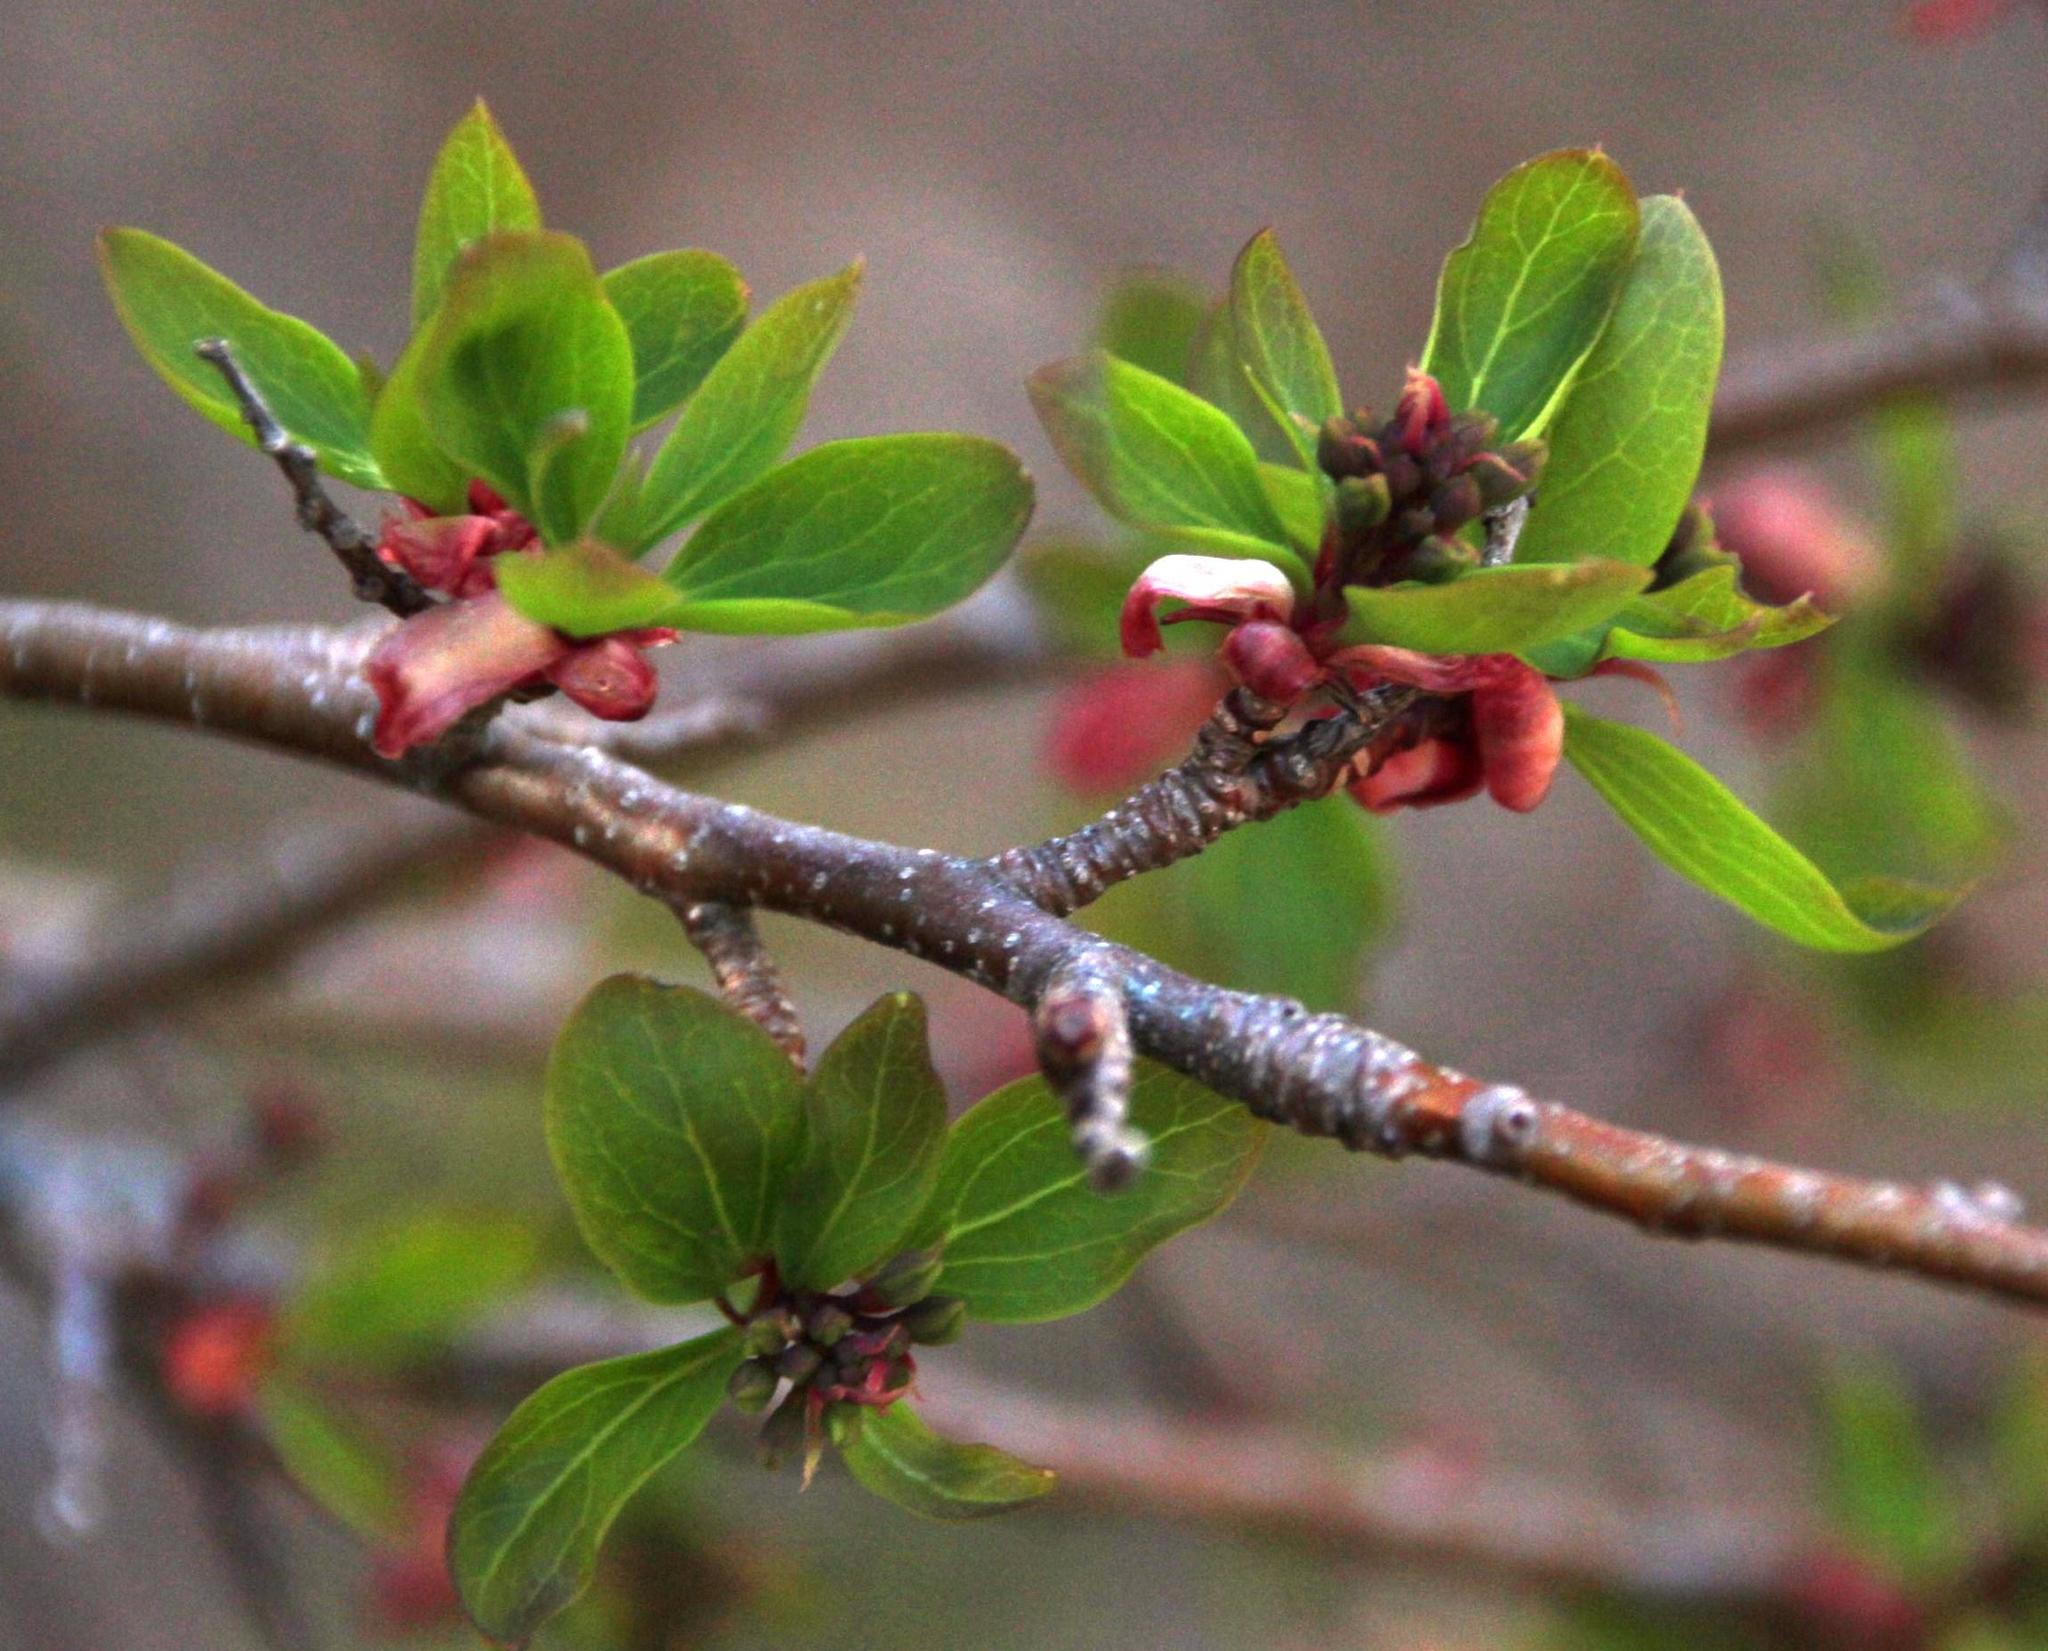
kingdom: Plantae
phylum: Tracheophyta
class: Magnoliopsida
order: Proteales
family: Proteaceae
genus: Embothrium
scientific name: Embothrium coccineum
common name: Chilean firebush
